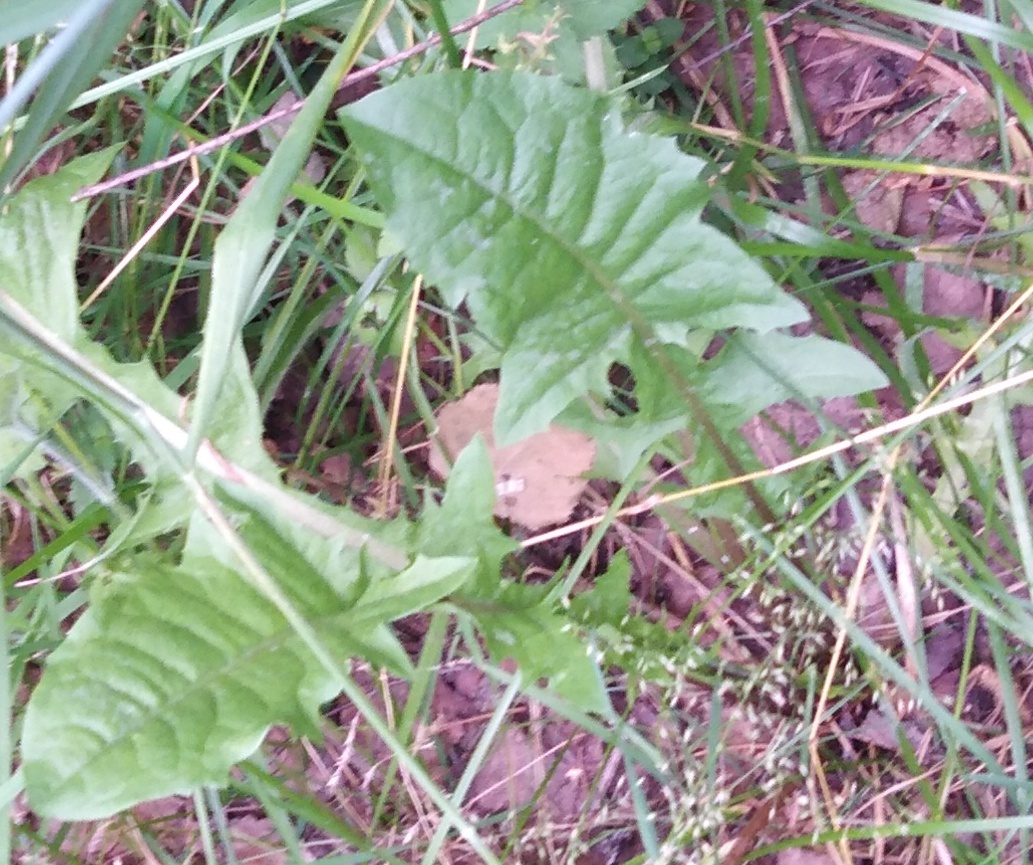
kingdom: Plantae
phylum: Tracheophyta
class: Magnoliopsida
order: Asterales
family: Asteraceae
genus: Taraxacum
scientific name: Taraxacum officinale
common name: Common dandelion
